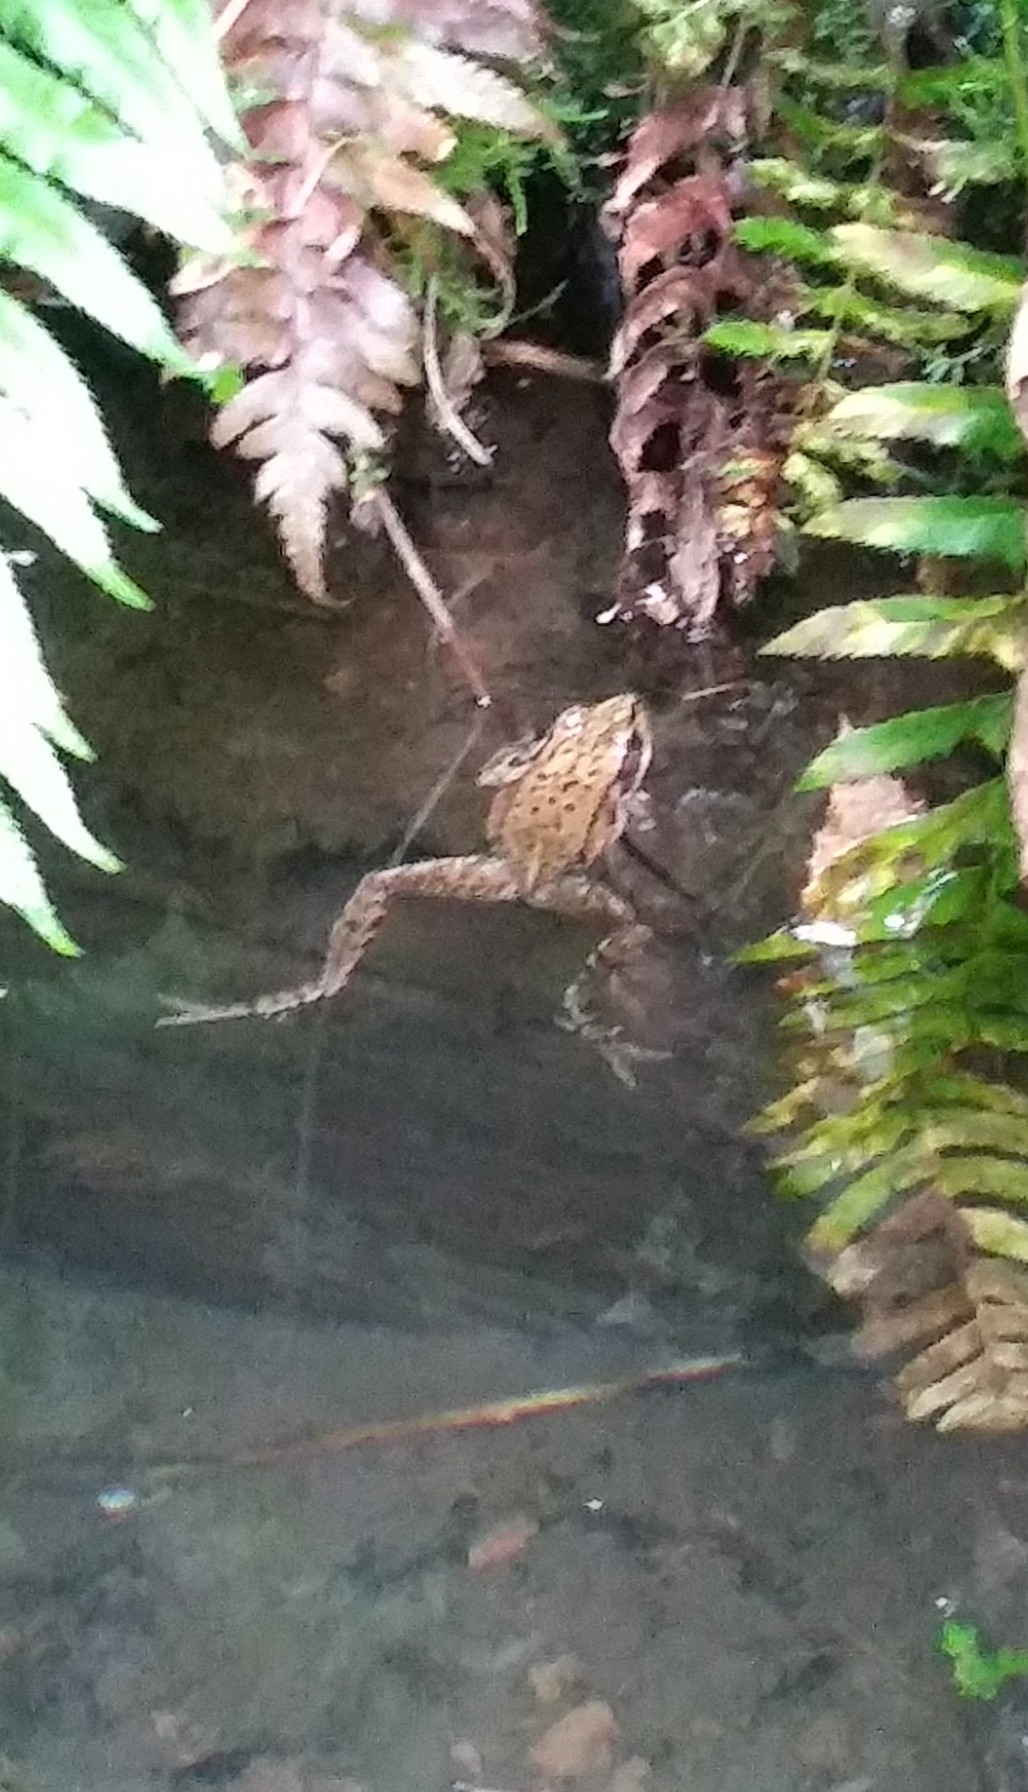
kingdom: Animalia
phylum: Chordata
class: Amphibia
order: Anura
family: Ranidae
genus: Rana
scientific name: Rana aurora
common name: Red-legged frog
